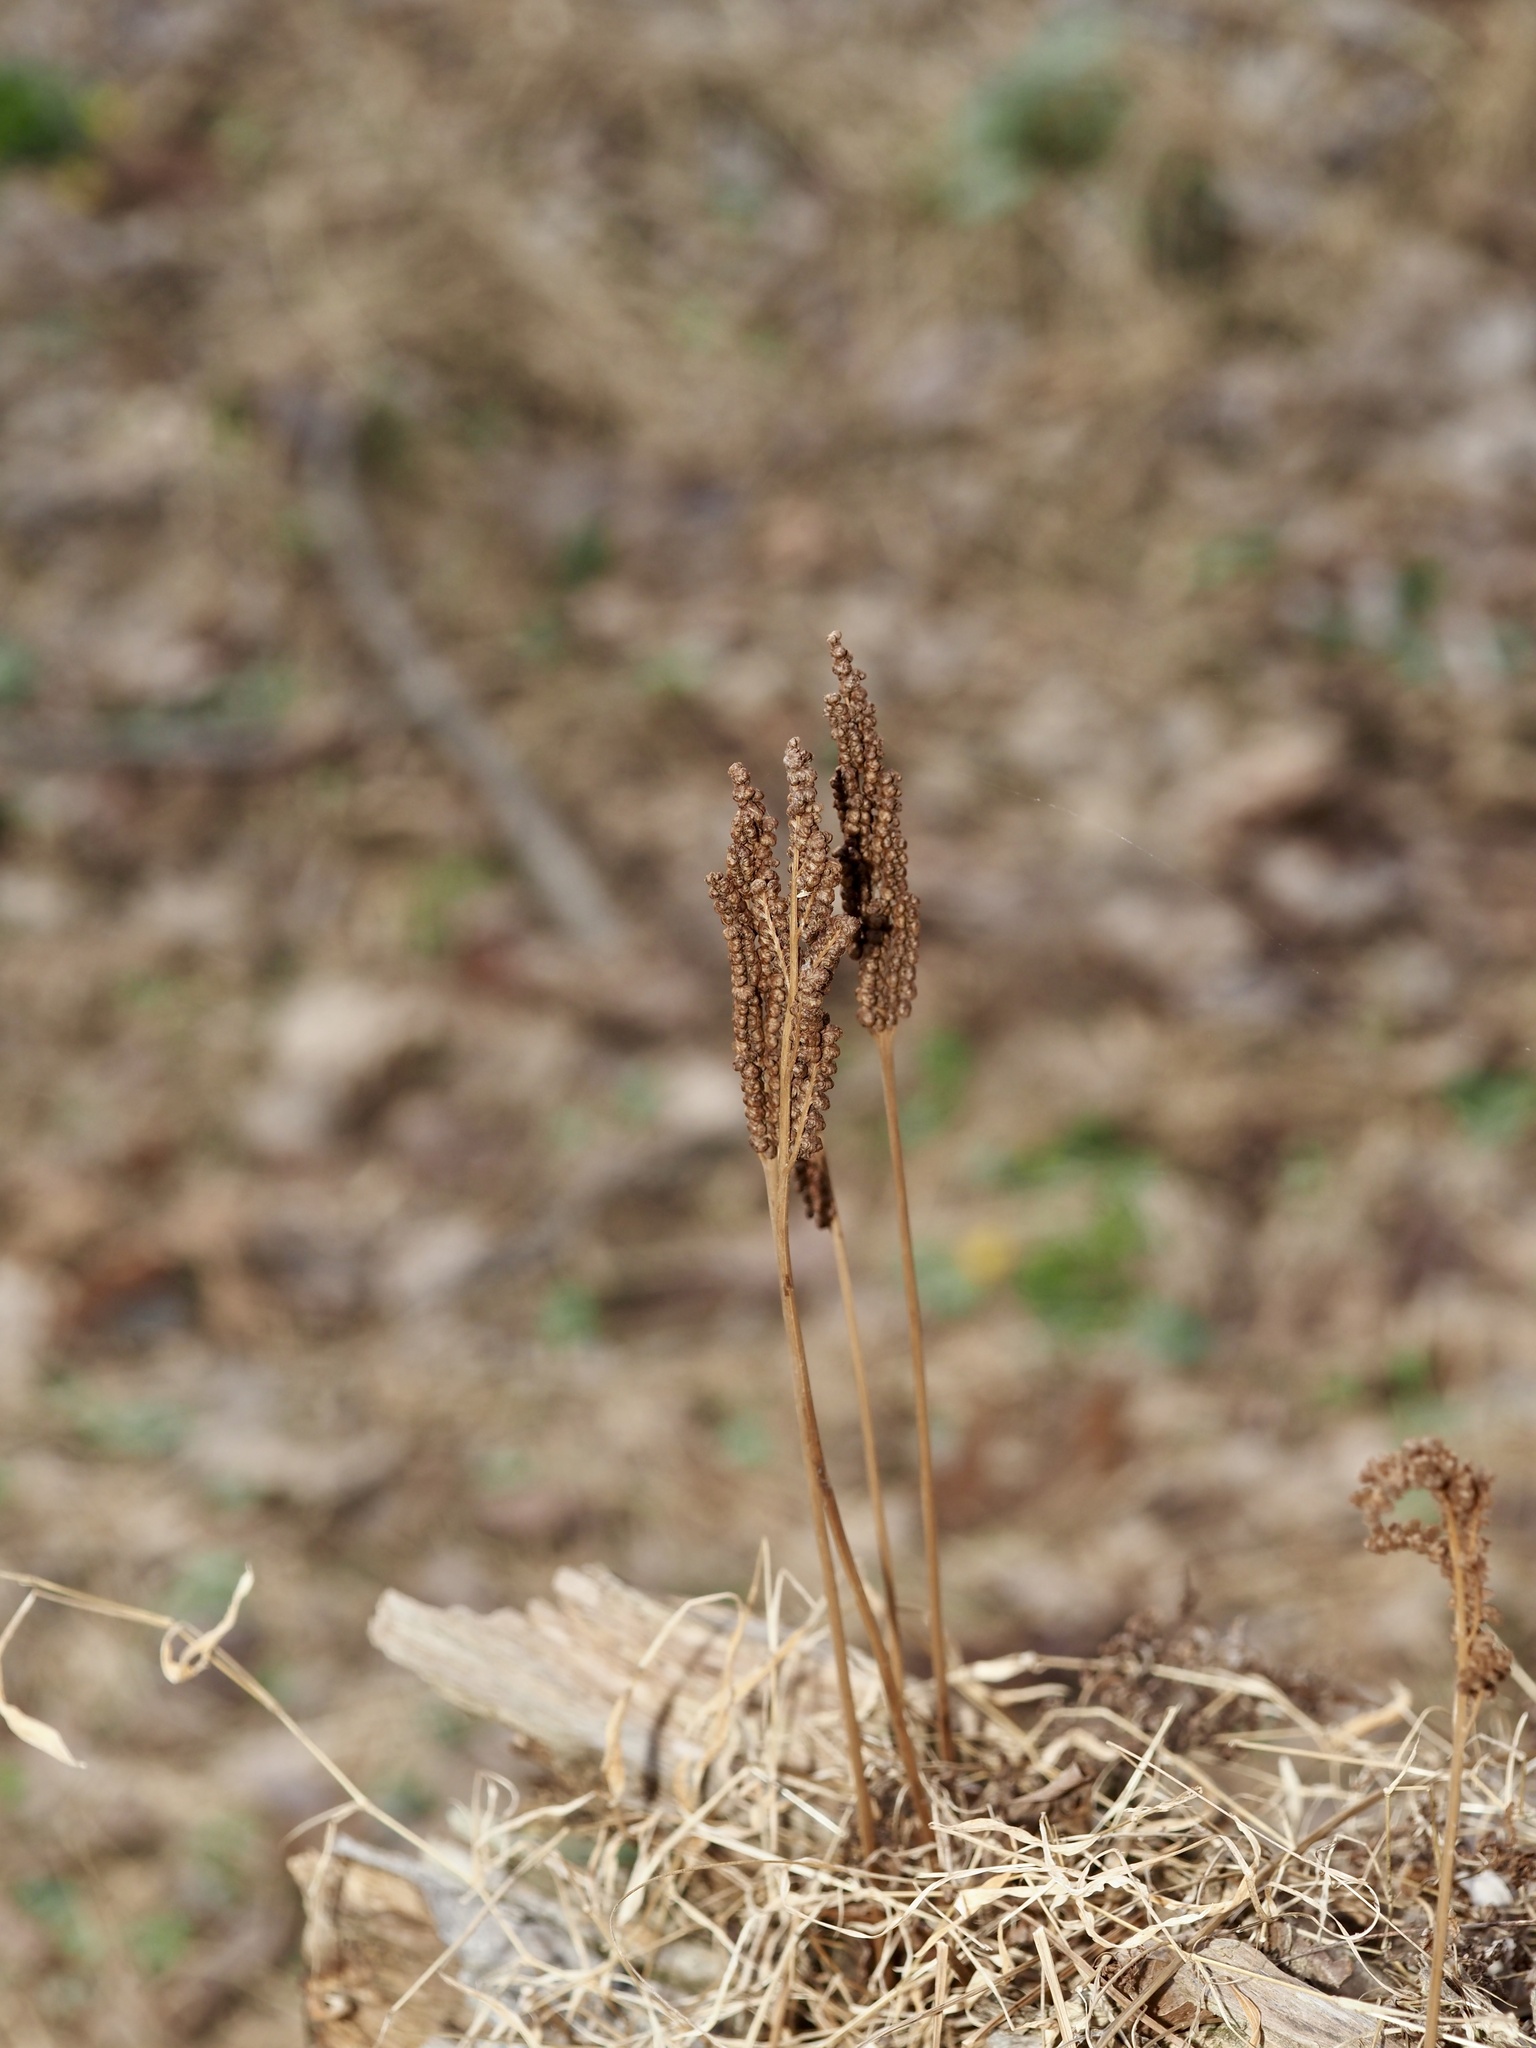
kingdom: Plantae
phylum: Tracheophyta
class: Polypodiopsida
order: Polypodiales
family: Onocleaceae
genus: Onoclea
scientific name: Onoclea sensibilis
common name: Sensitive fern
